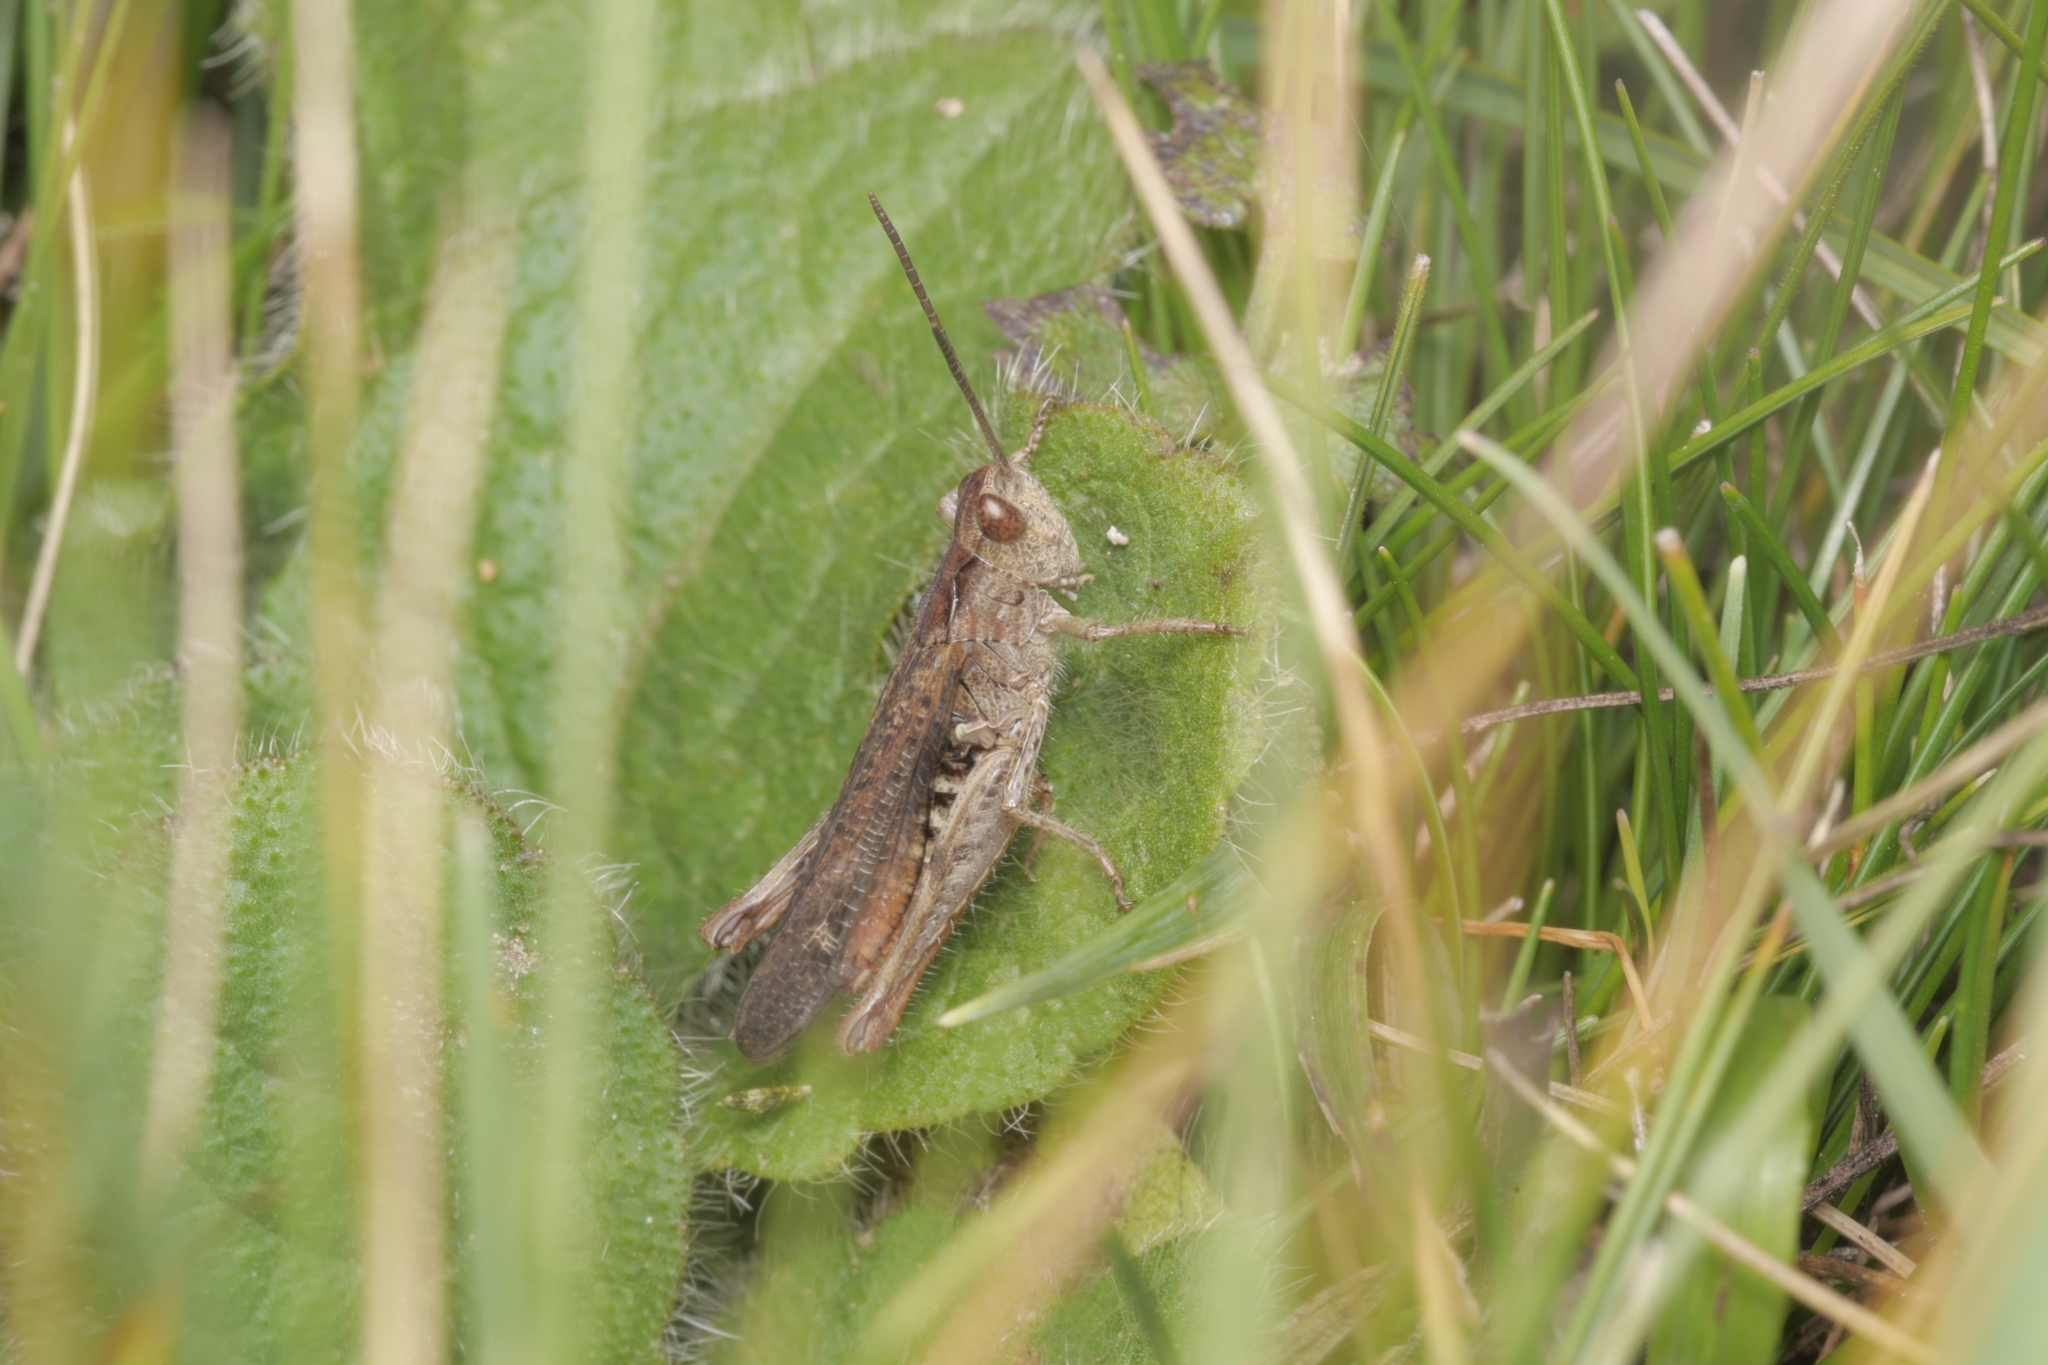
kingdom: Animalia
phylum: Arthropoda
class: Insecta
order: Orthoptera
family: Acrididae
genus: Chorthippus
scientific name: Chorthippus biguttulus
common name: Bow-winged grasshopper
